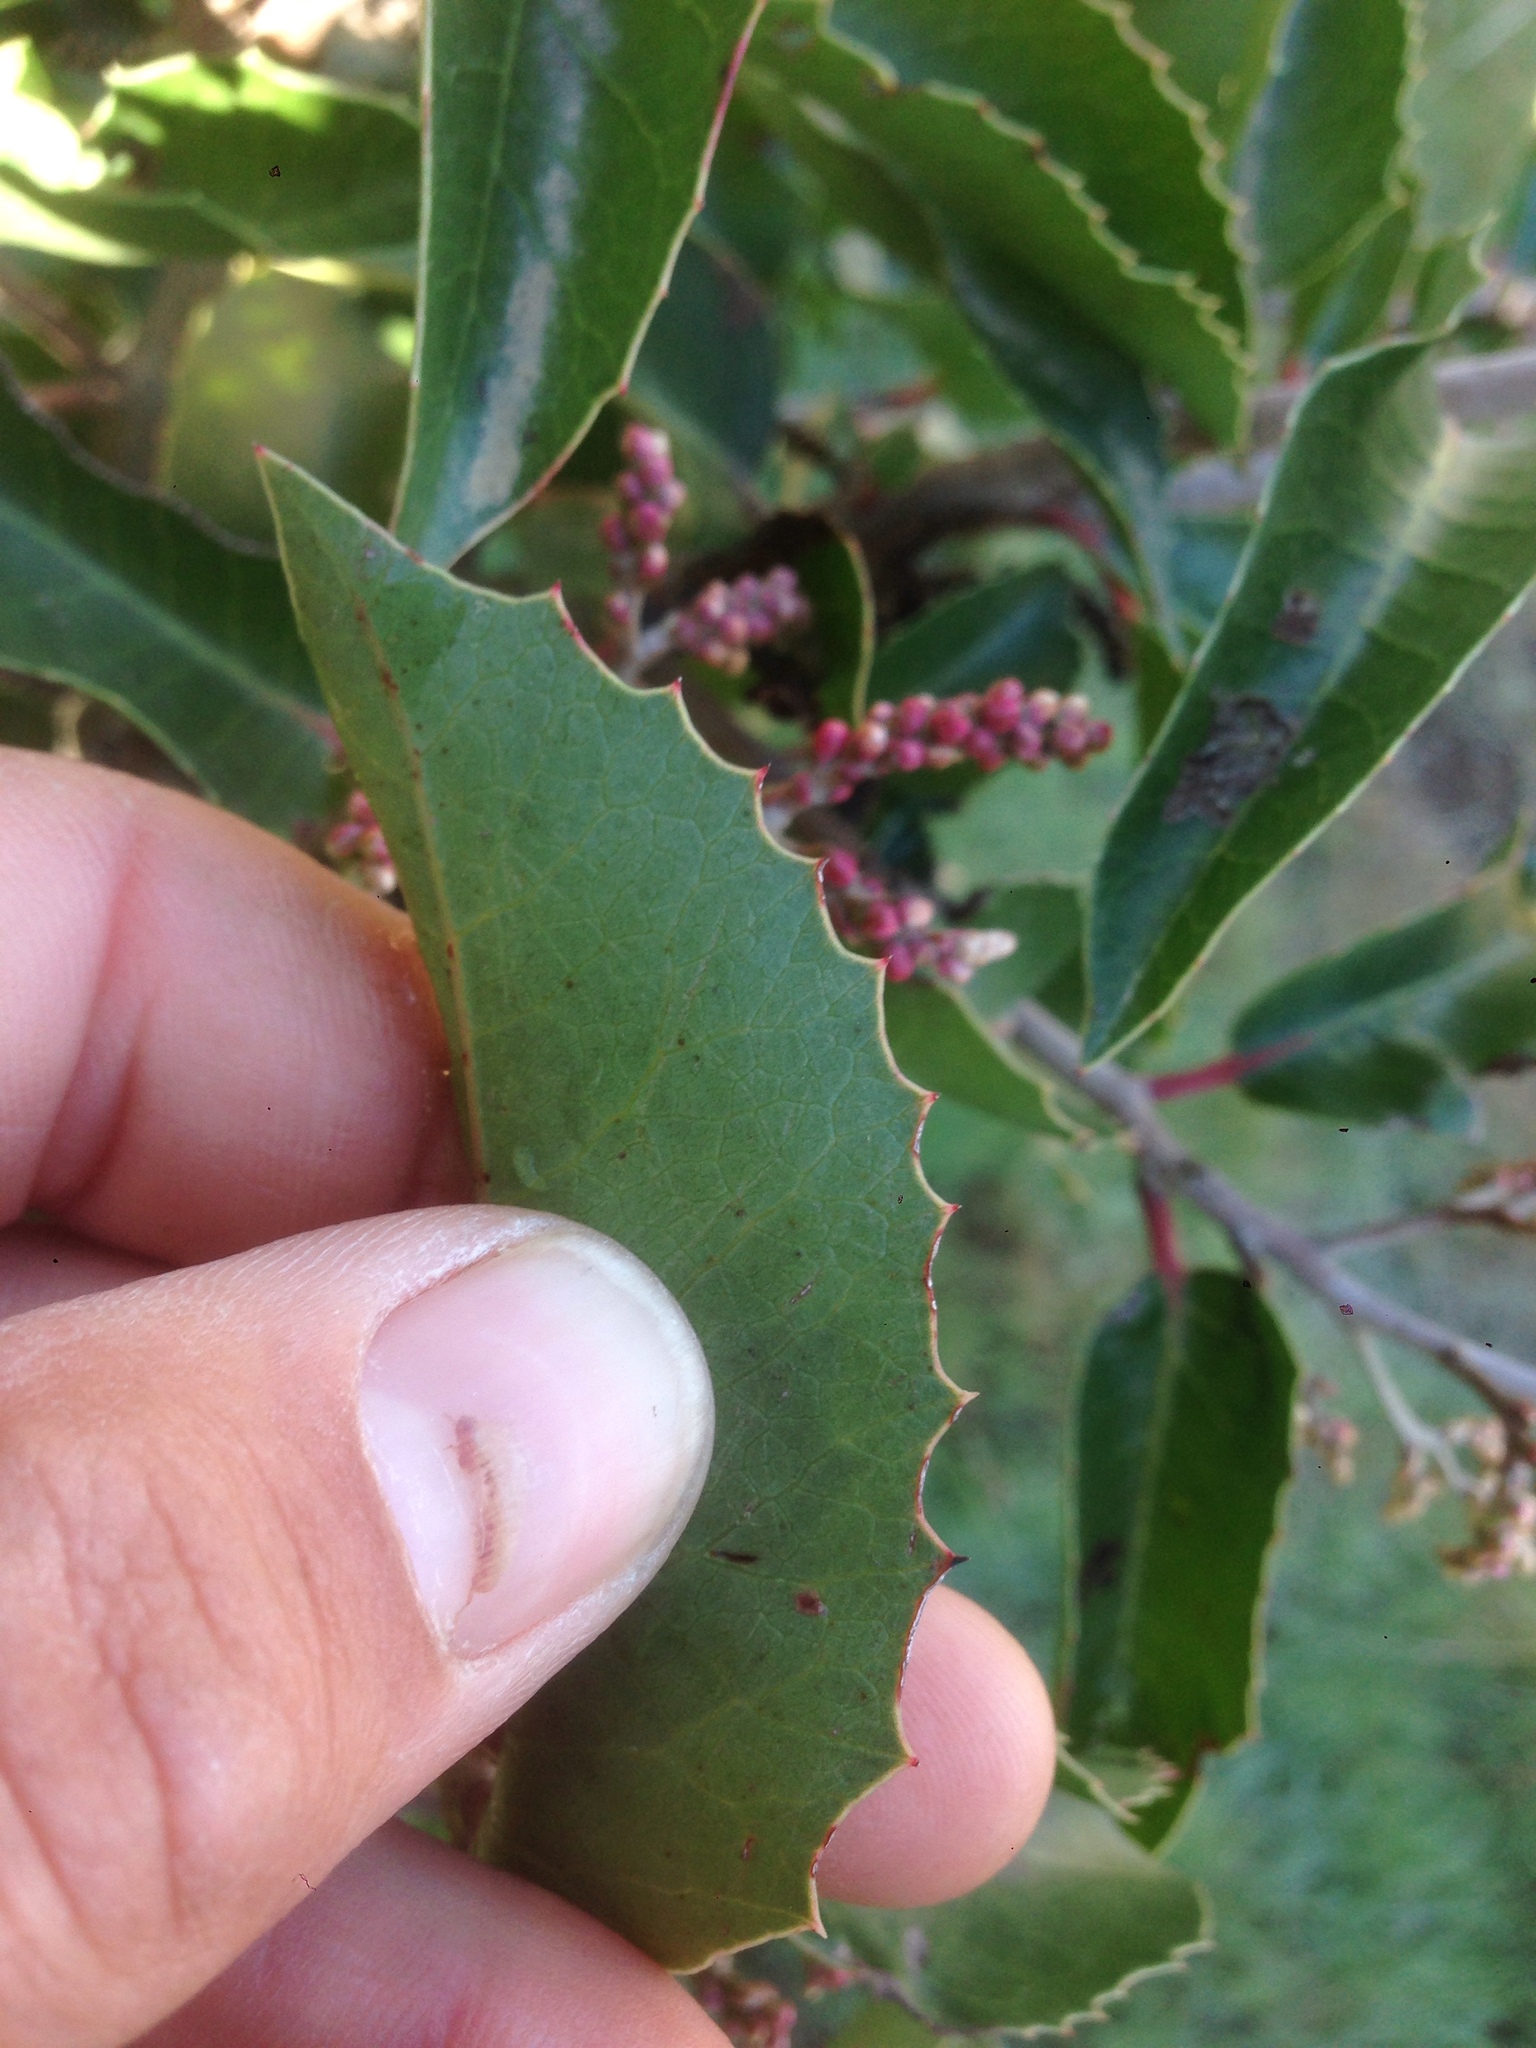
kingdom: Plantae
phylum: Tracheophyta
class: Magnoliopsida
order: Sapindales
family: Anacardiaceae
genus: Rhus
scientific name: Rhus
